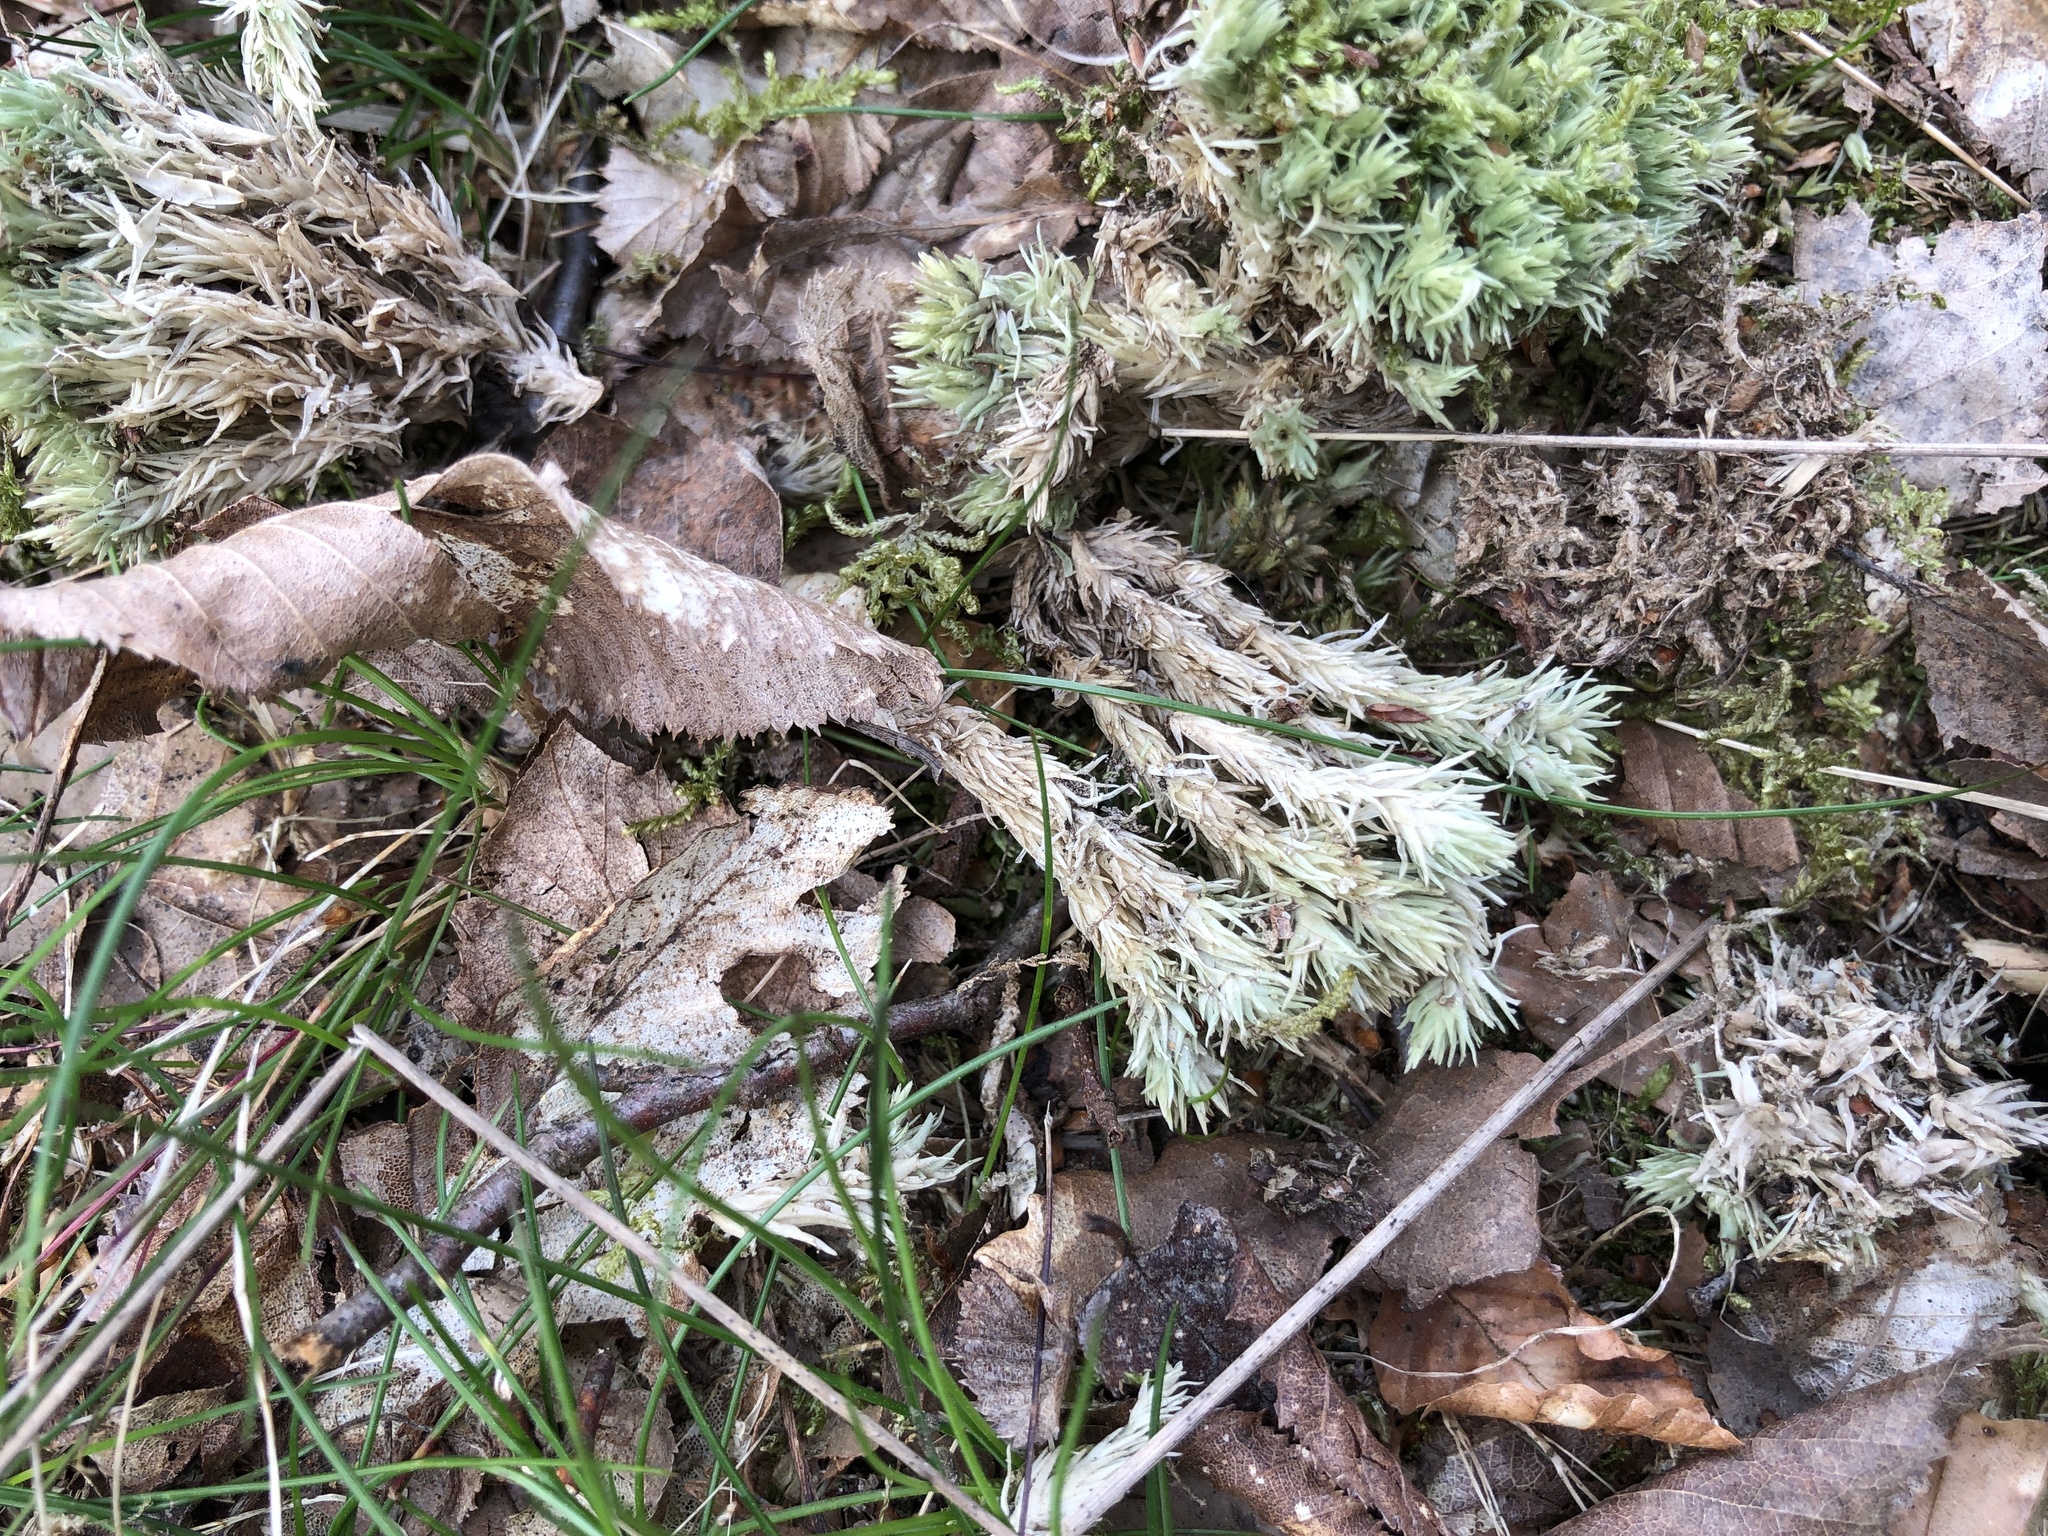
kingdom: Plantae
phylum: Bryophyta
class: Bryopsida
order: Dicranales
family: Leucobryaceae
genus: Leucobryum
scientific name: Leucobryum glaucum
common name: Large white-moss
